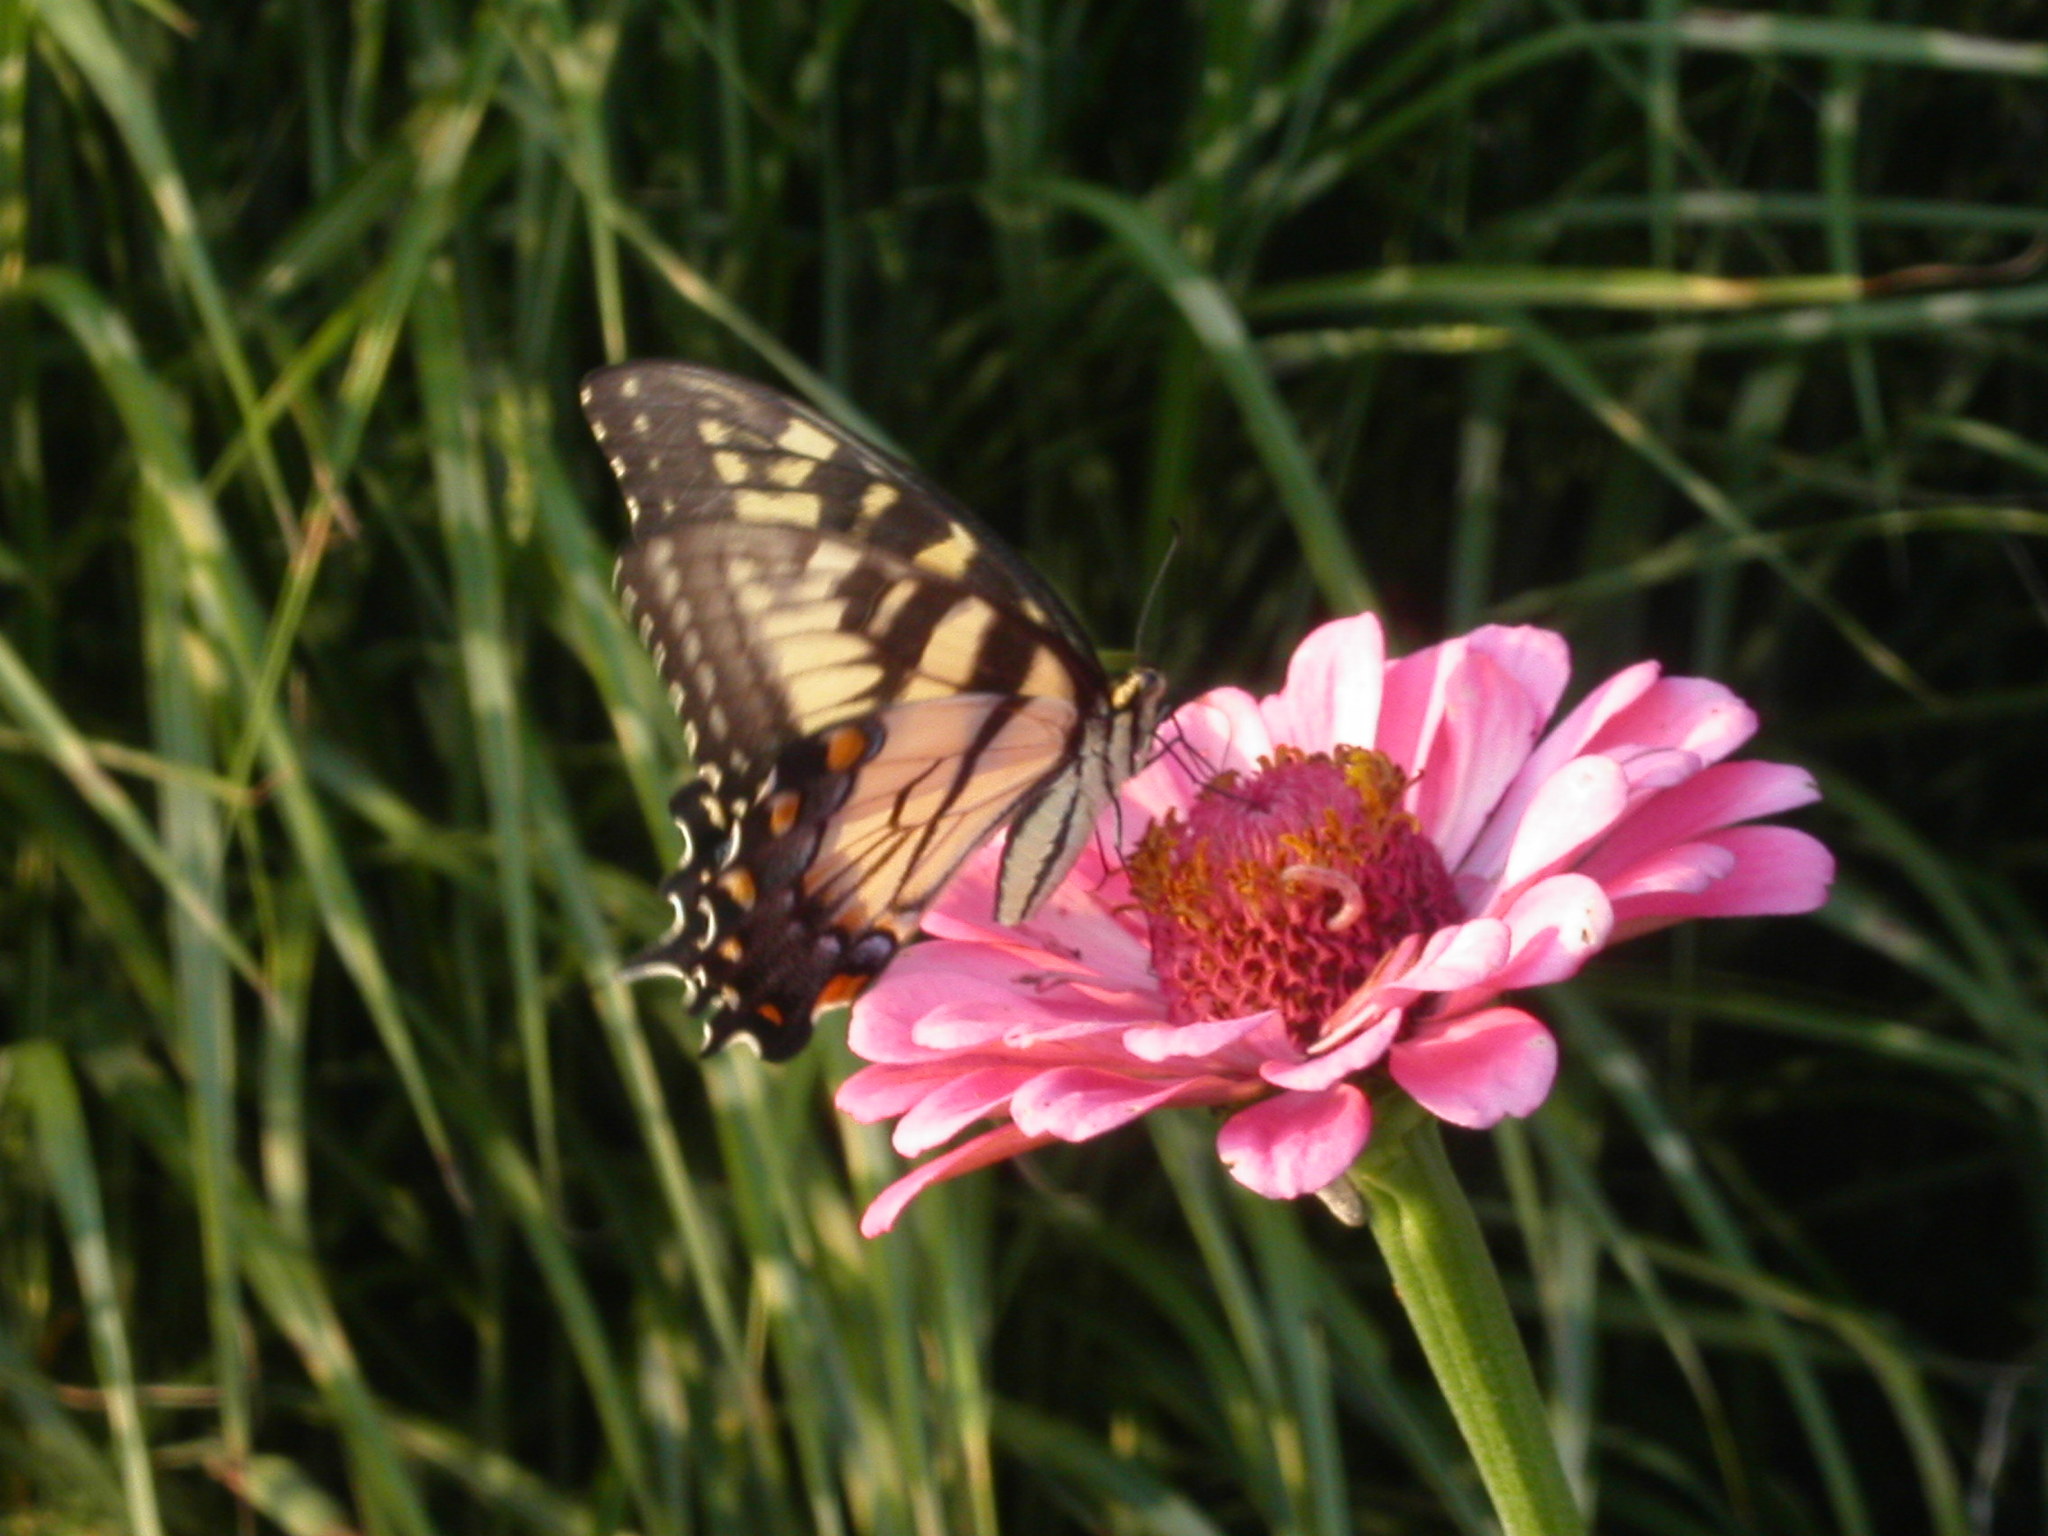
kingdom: Animalia
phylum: Arthropoda
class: Insecta
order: Lepidoptera
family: Papilionidae
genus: Papilio
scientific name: Papilio glaucus
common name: Tiger swallowtail
